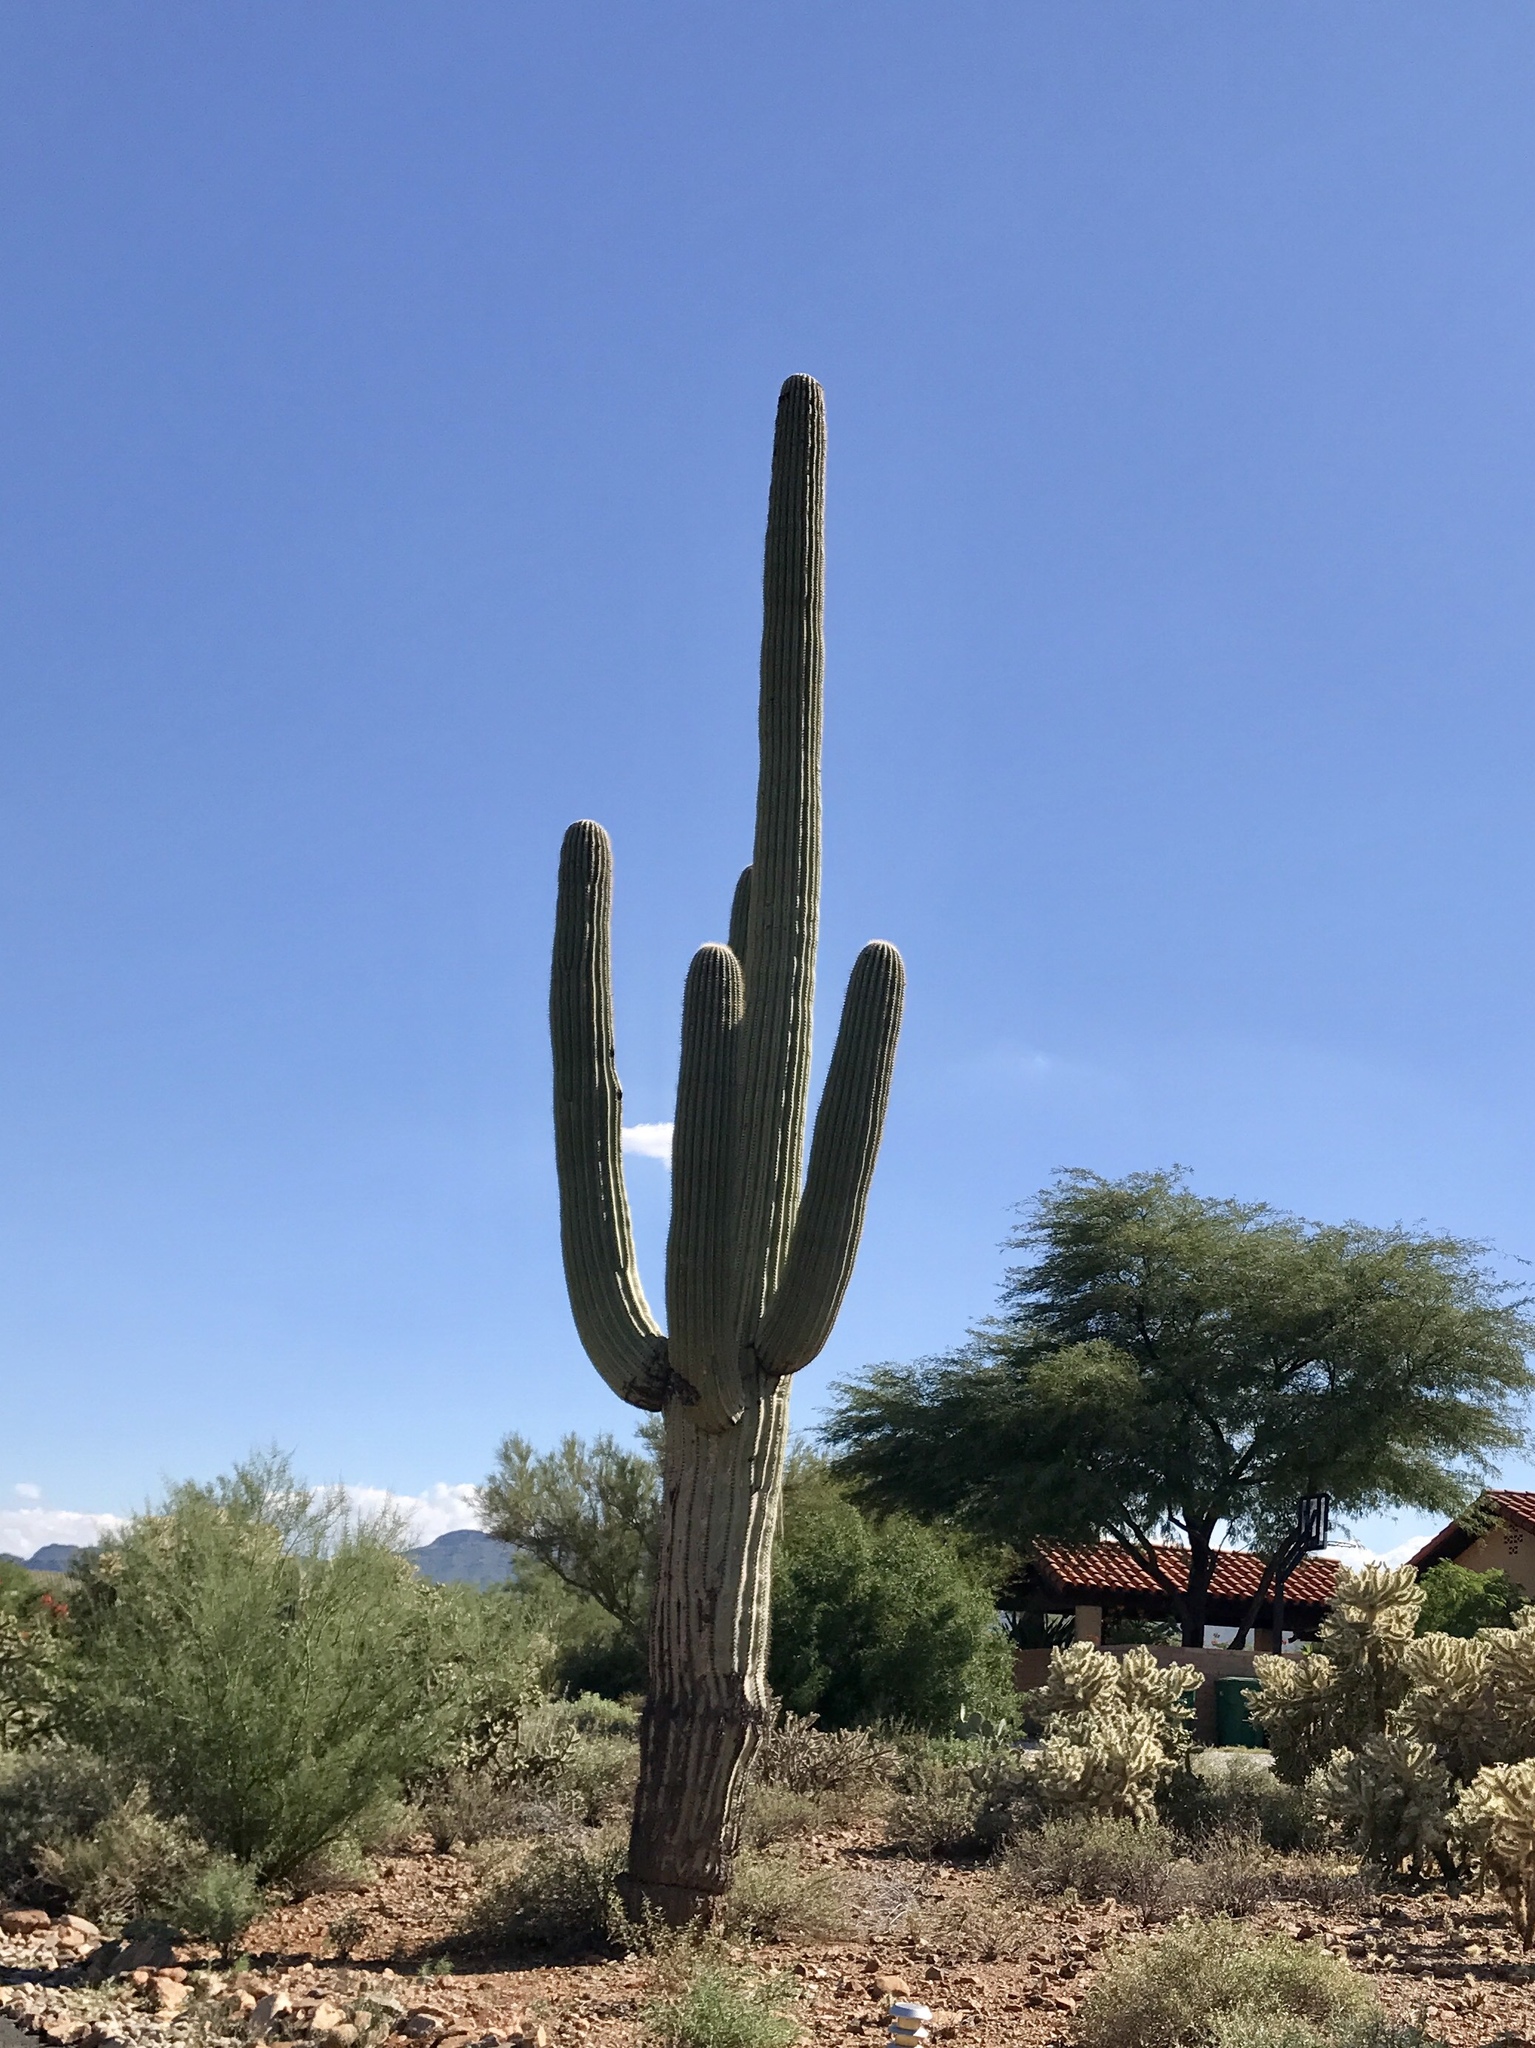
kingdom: Plantae
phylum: Tracheophyta
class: Magnoliopsida
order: Caryophyllales
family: Cactaceae
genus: Carnegiea
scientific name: Carnegiea gigantea
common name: Saguaro
